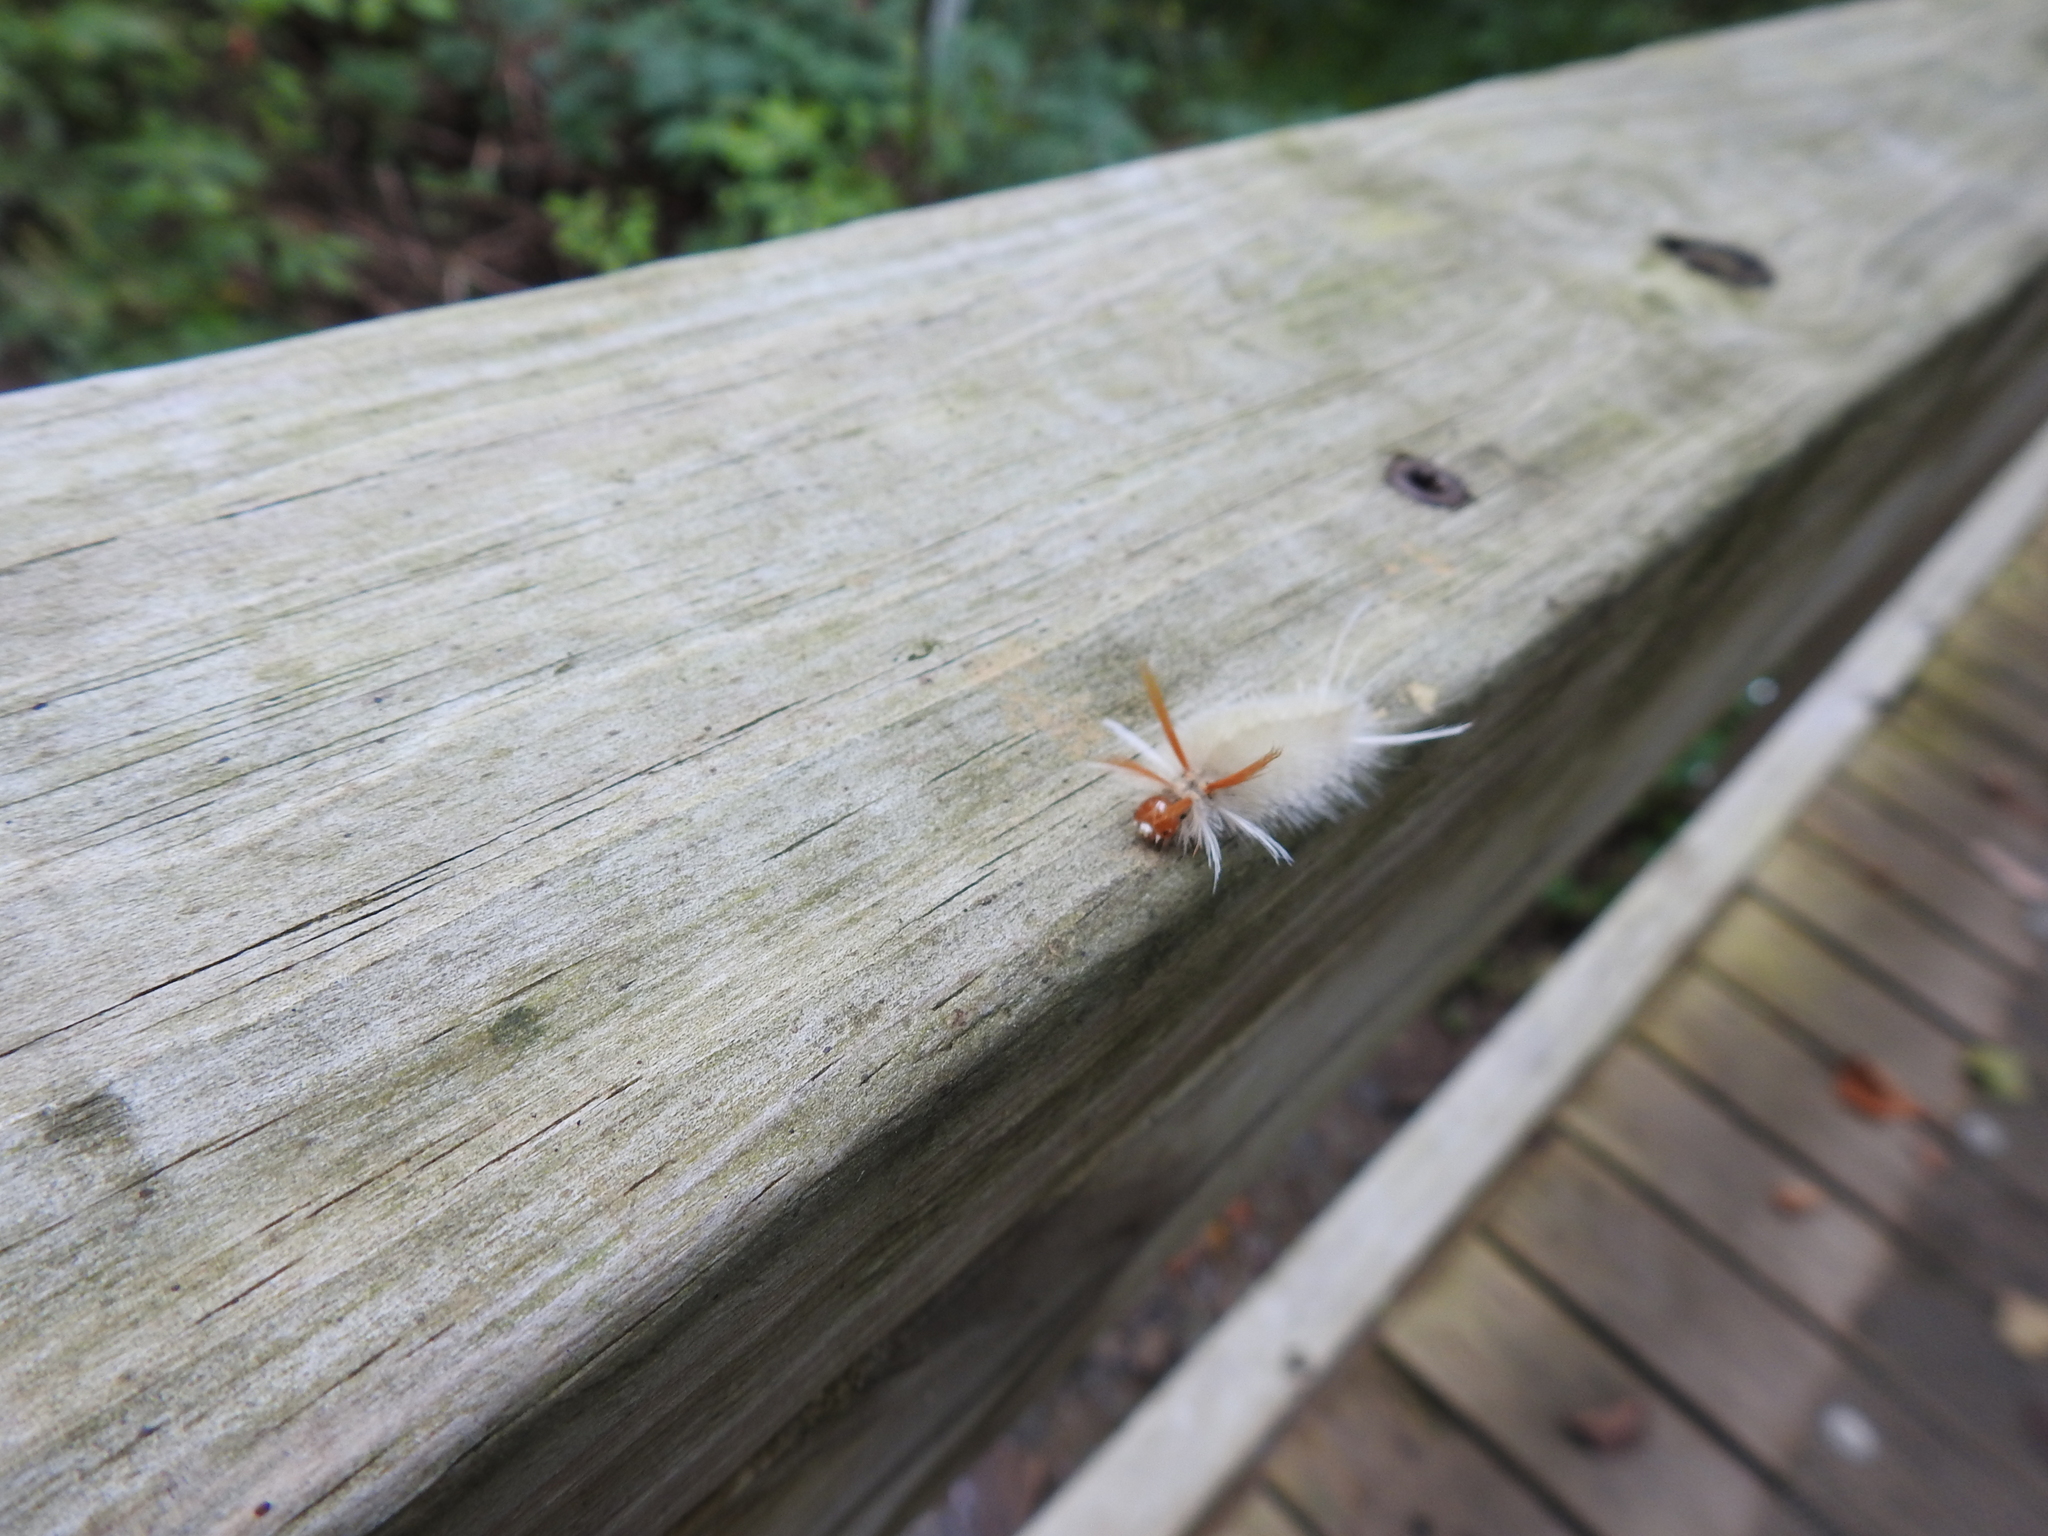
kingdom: Animalia
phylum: Arthropoda
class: Insecta
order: Lepidoptera
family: Erebidae
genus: Halysidota
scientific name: Halysidota harrisii
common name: Sycamore tussock moth
